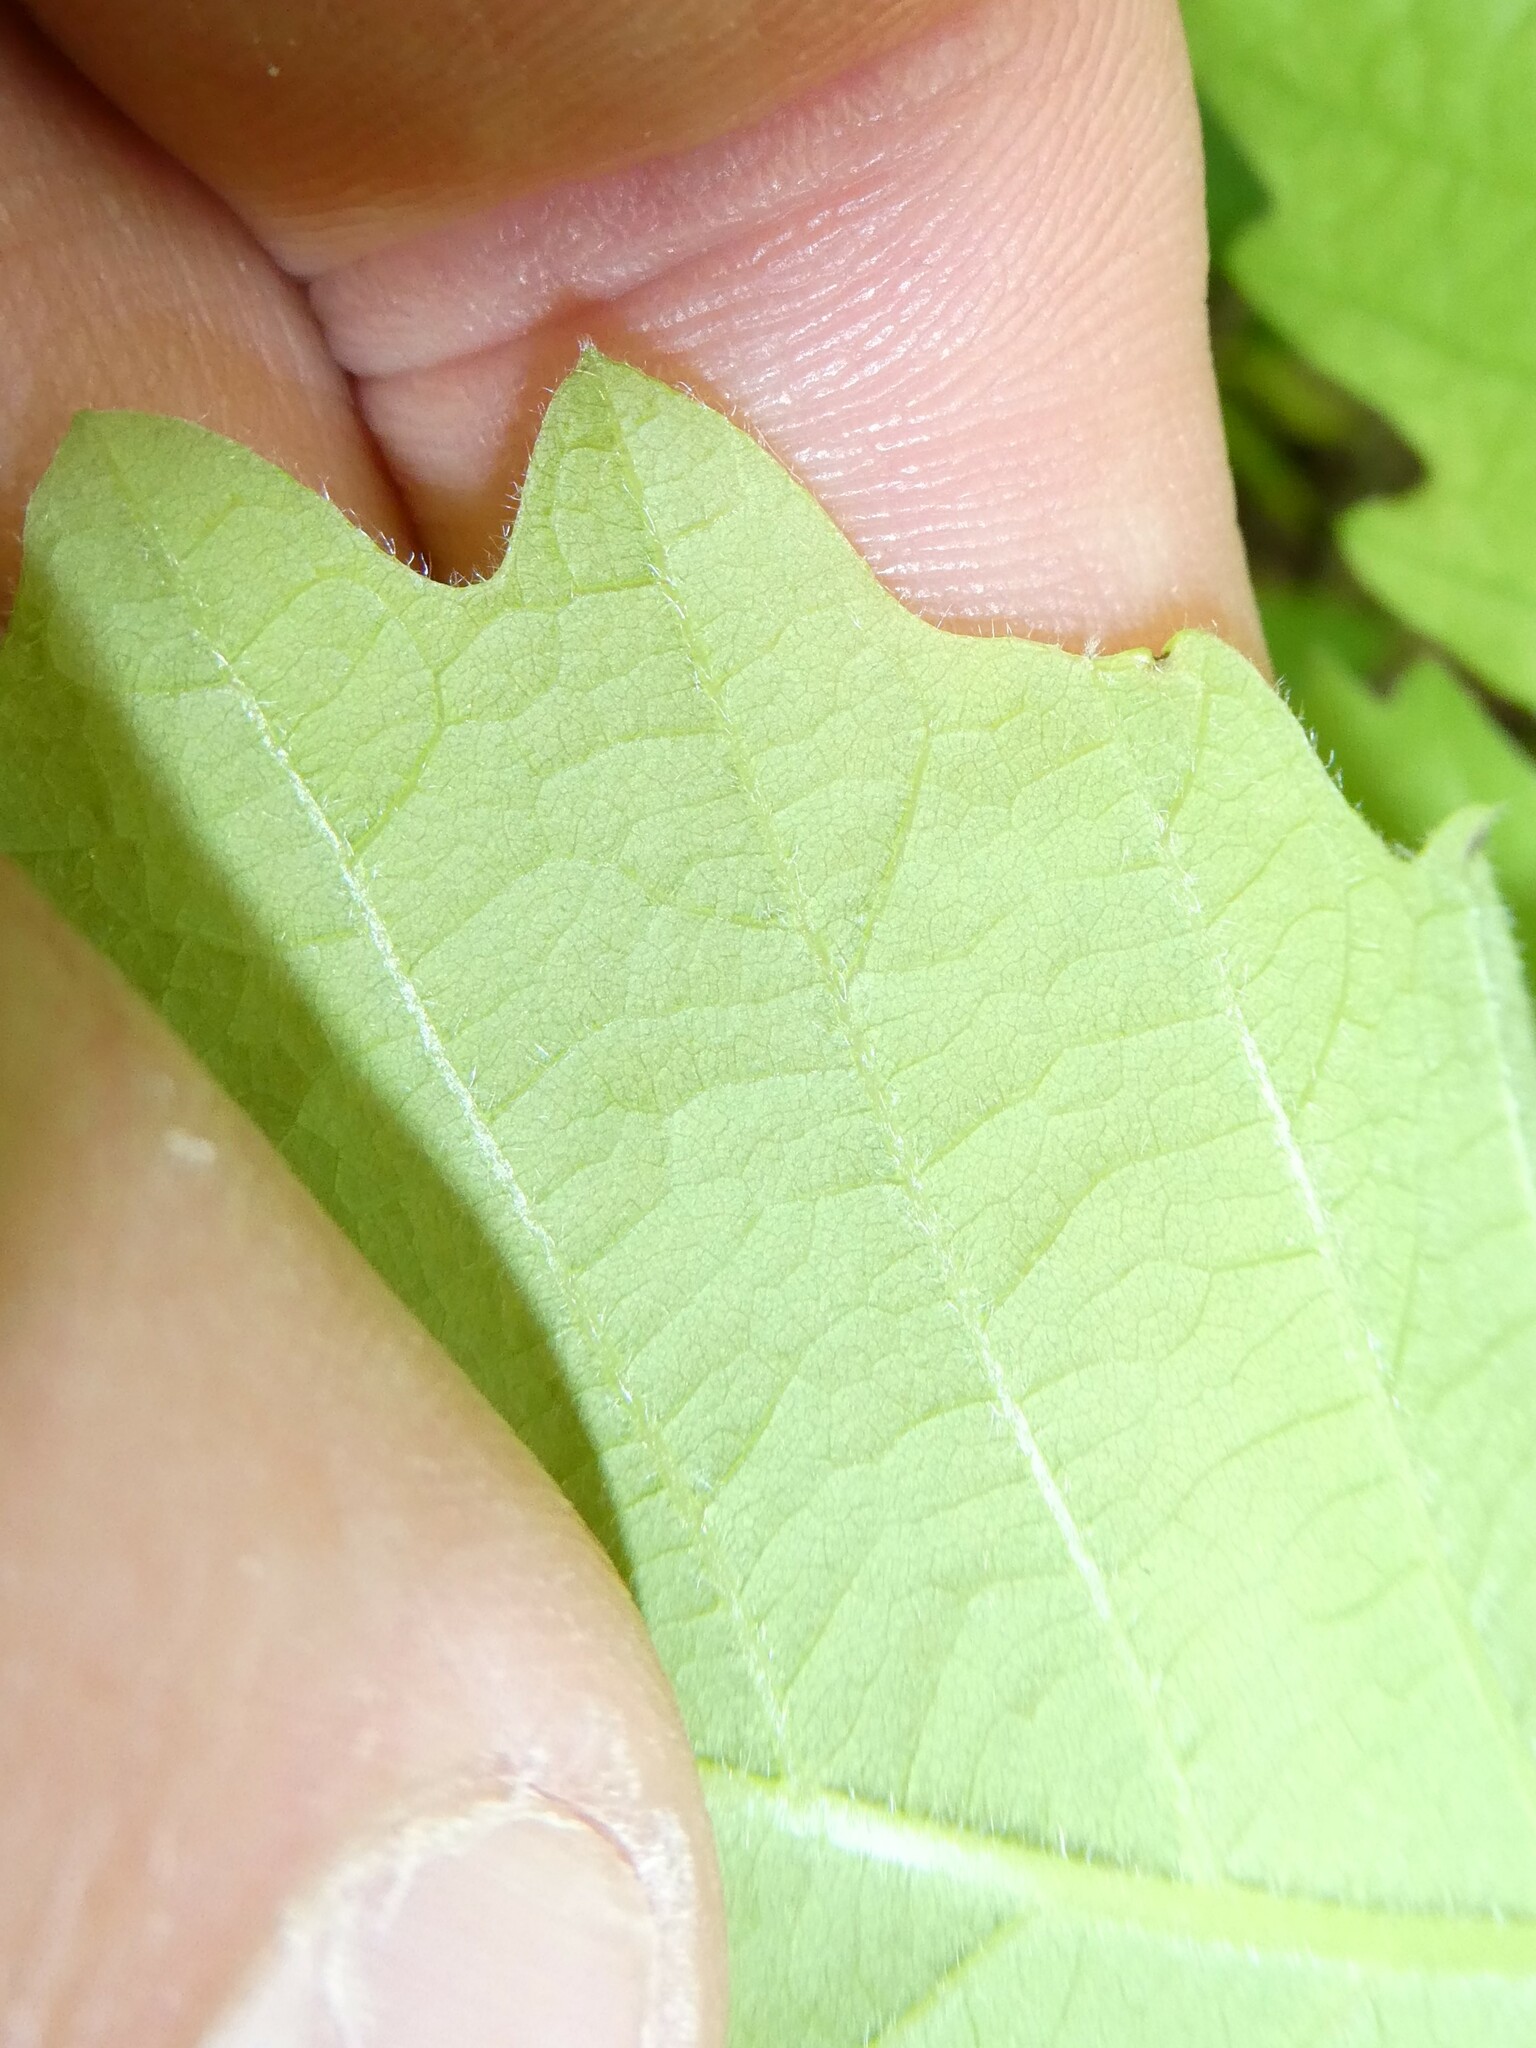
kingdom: Plantae
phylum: Tracheophyta
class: Magnoliopsida
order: Fagales
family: Fagaceae
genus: Quercus
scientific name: Quercus bicolor
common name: Swamp white oak
